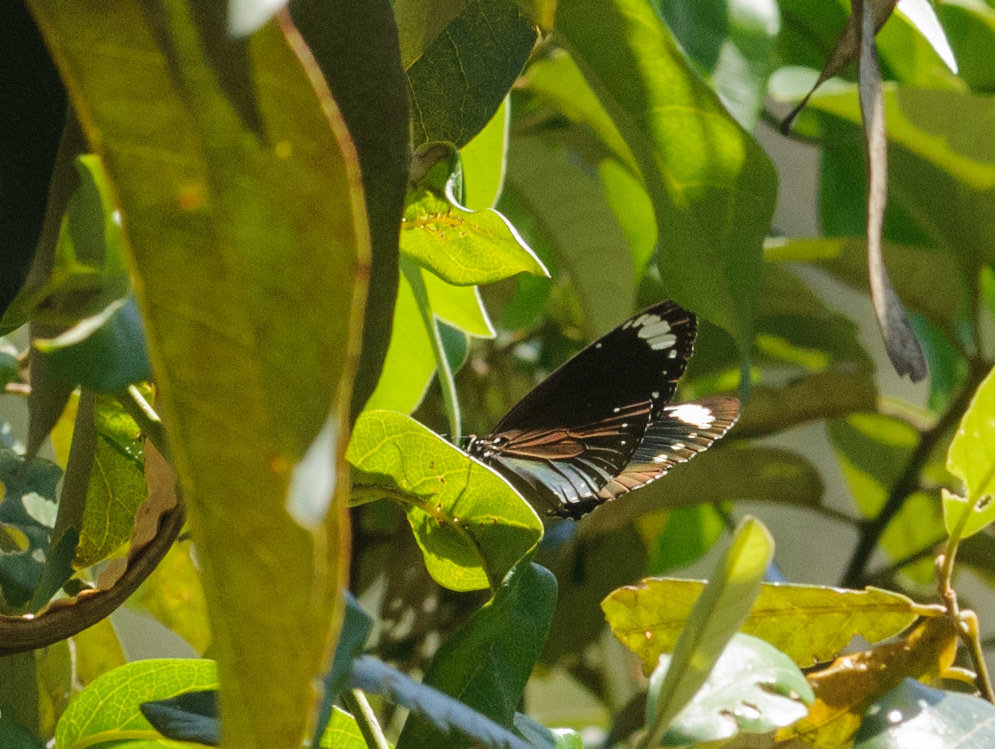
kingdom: Animalia
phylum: Arthropoda
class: Insecta
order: Lepidoptera
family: Nymphalidae
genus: Euploea
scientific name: Euploea tulliolus
